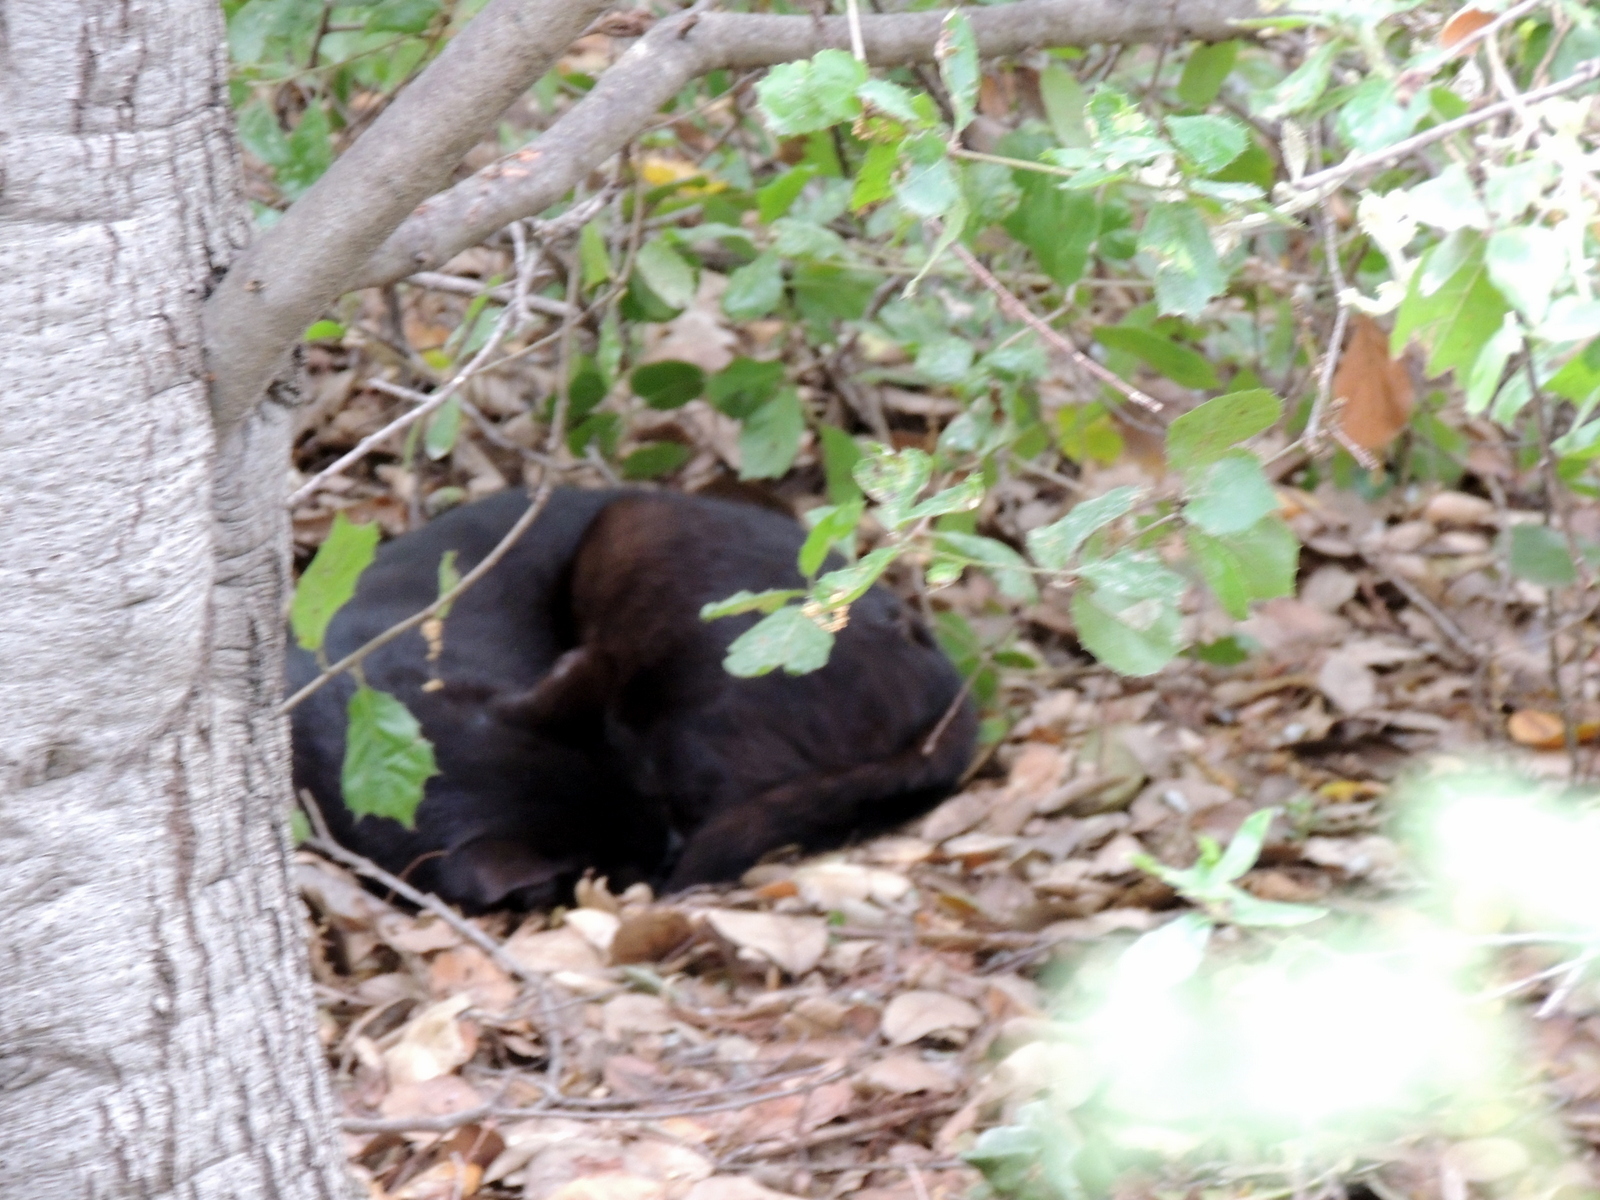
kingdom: Animalia
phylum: Chordata
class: Mammalia
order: Carnivora
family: Felidae
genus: Felis
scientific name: Felis catus
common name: Domestic cat
